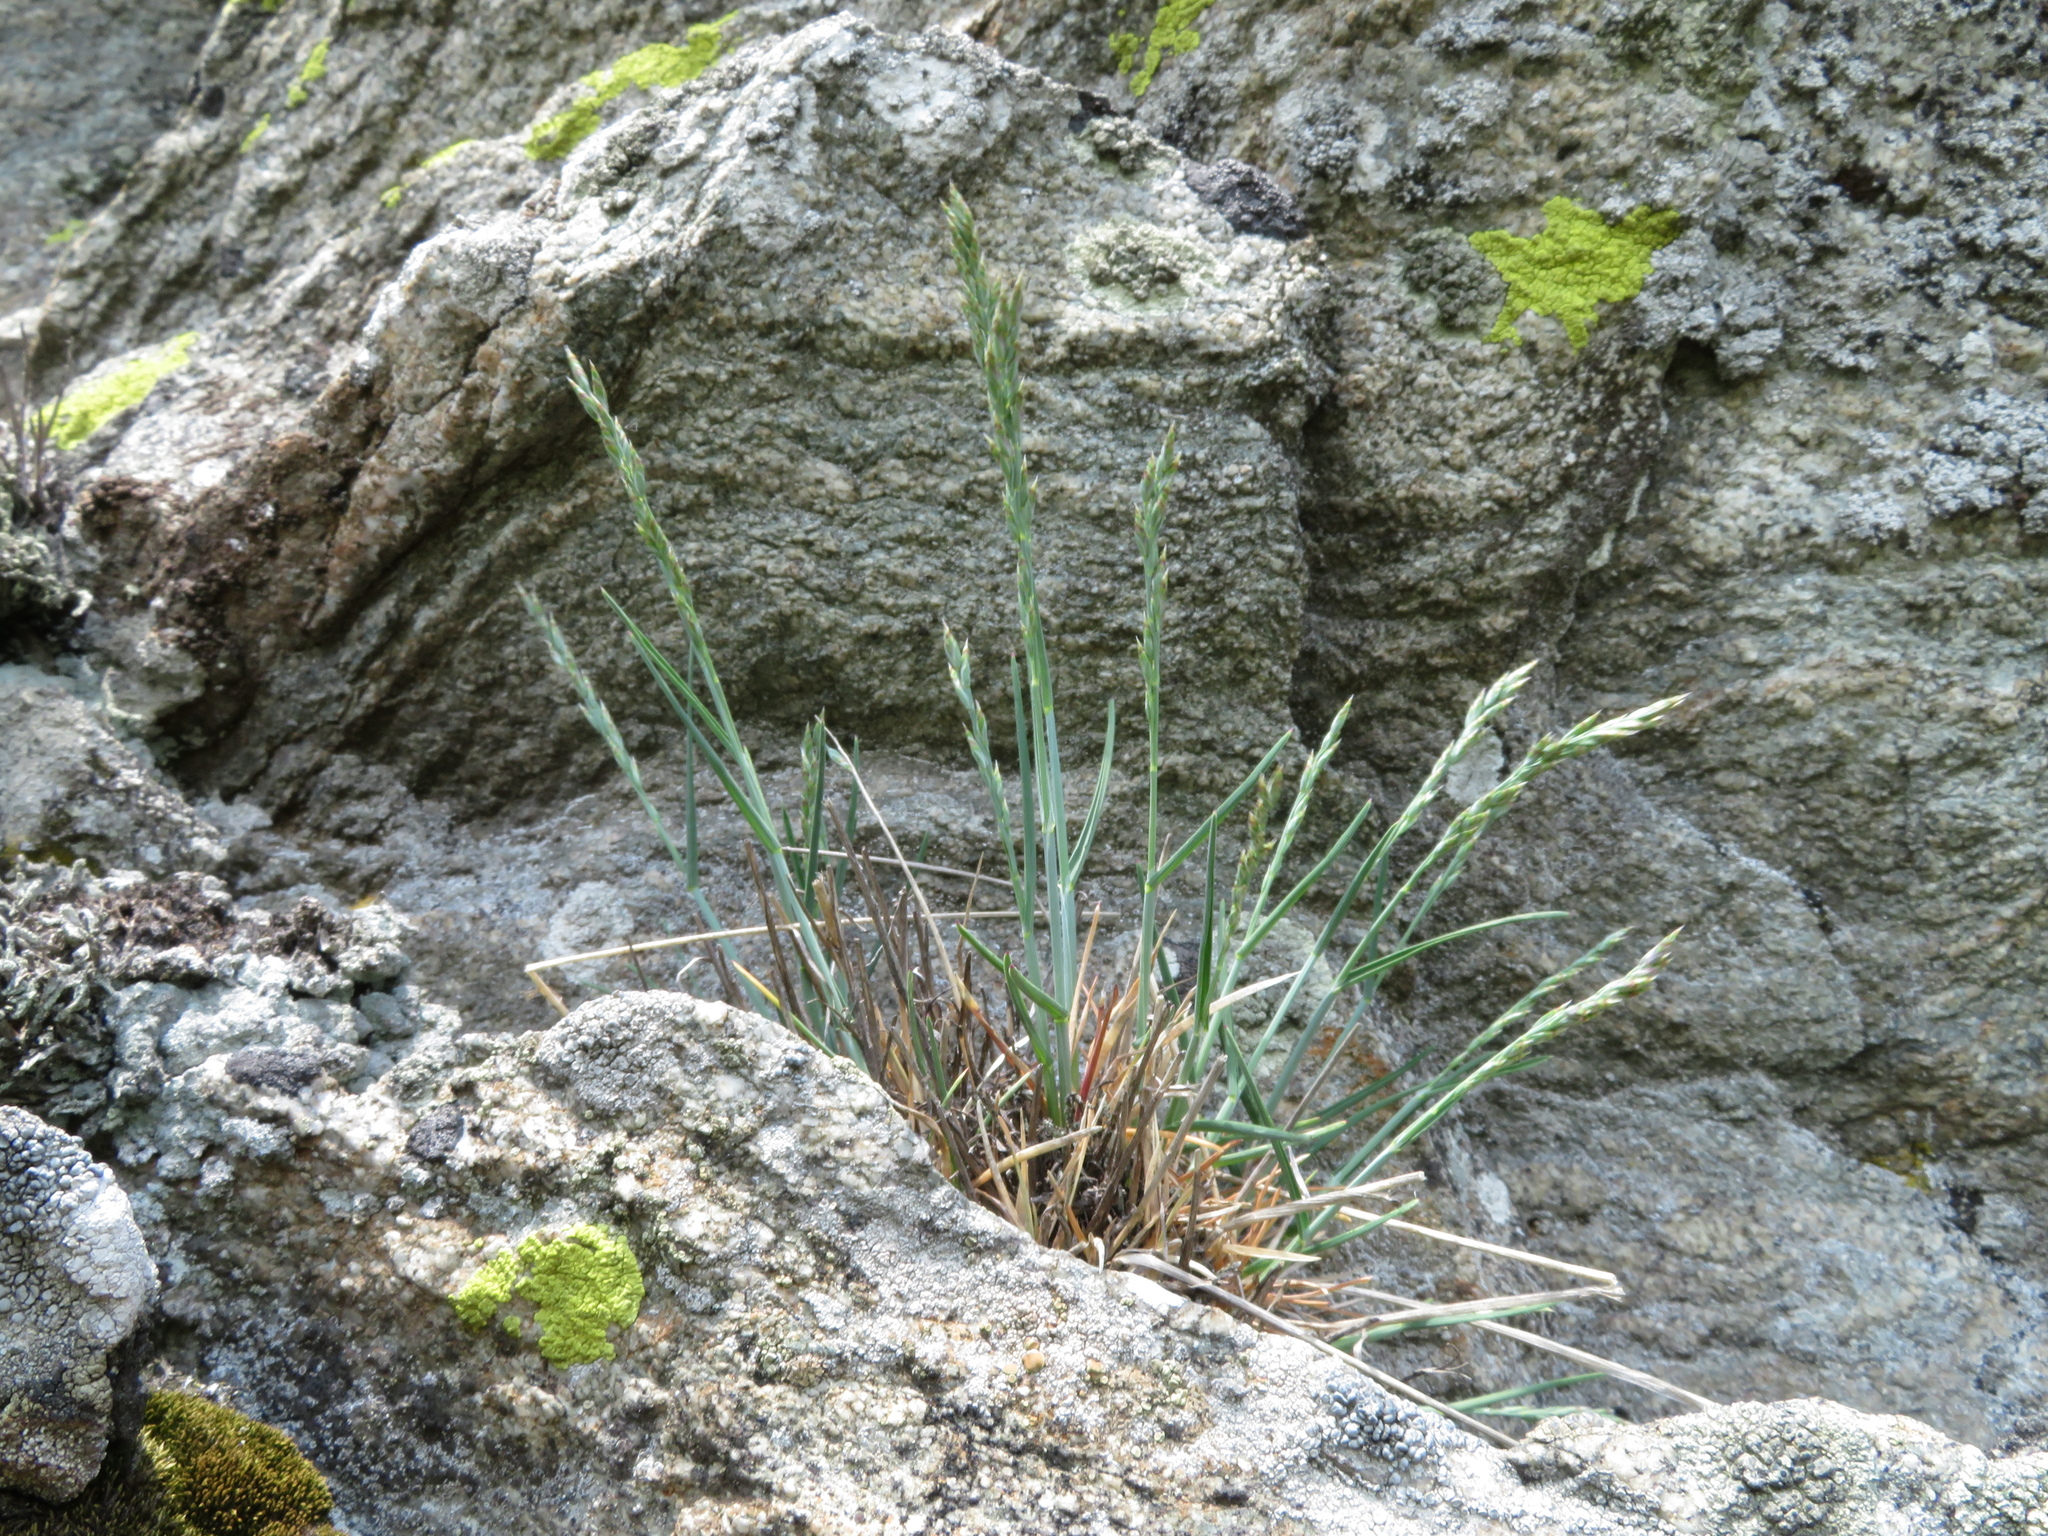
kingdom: Plantae
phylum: Tracheophyta
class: Liliopsida
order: Poales
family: Poaceae
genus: Poa
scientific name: Poa laxa
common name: Lax bluegrass
